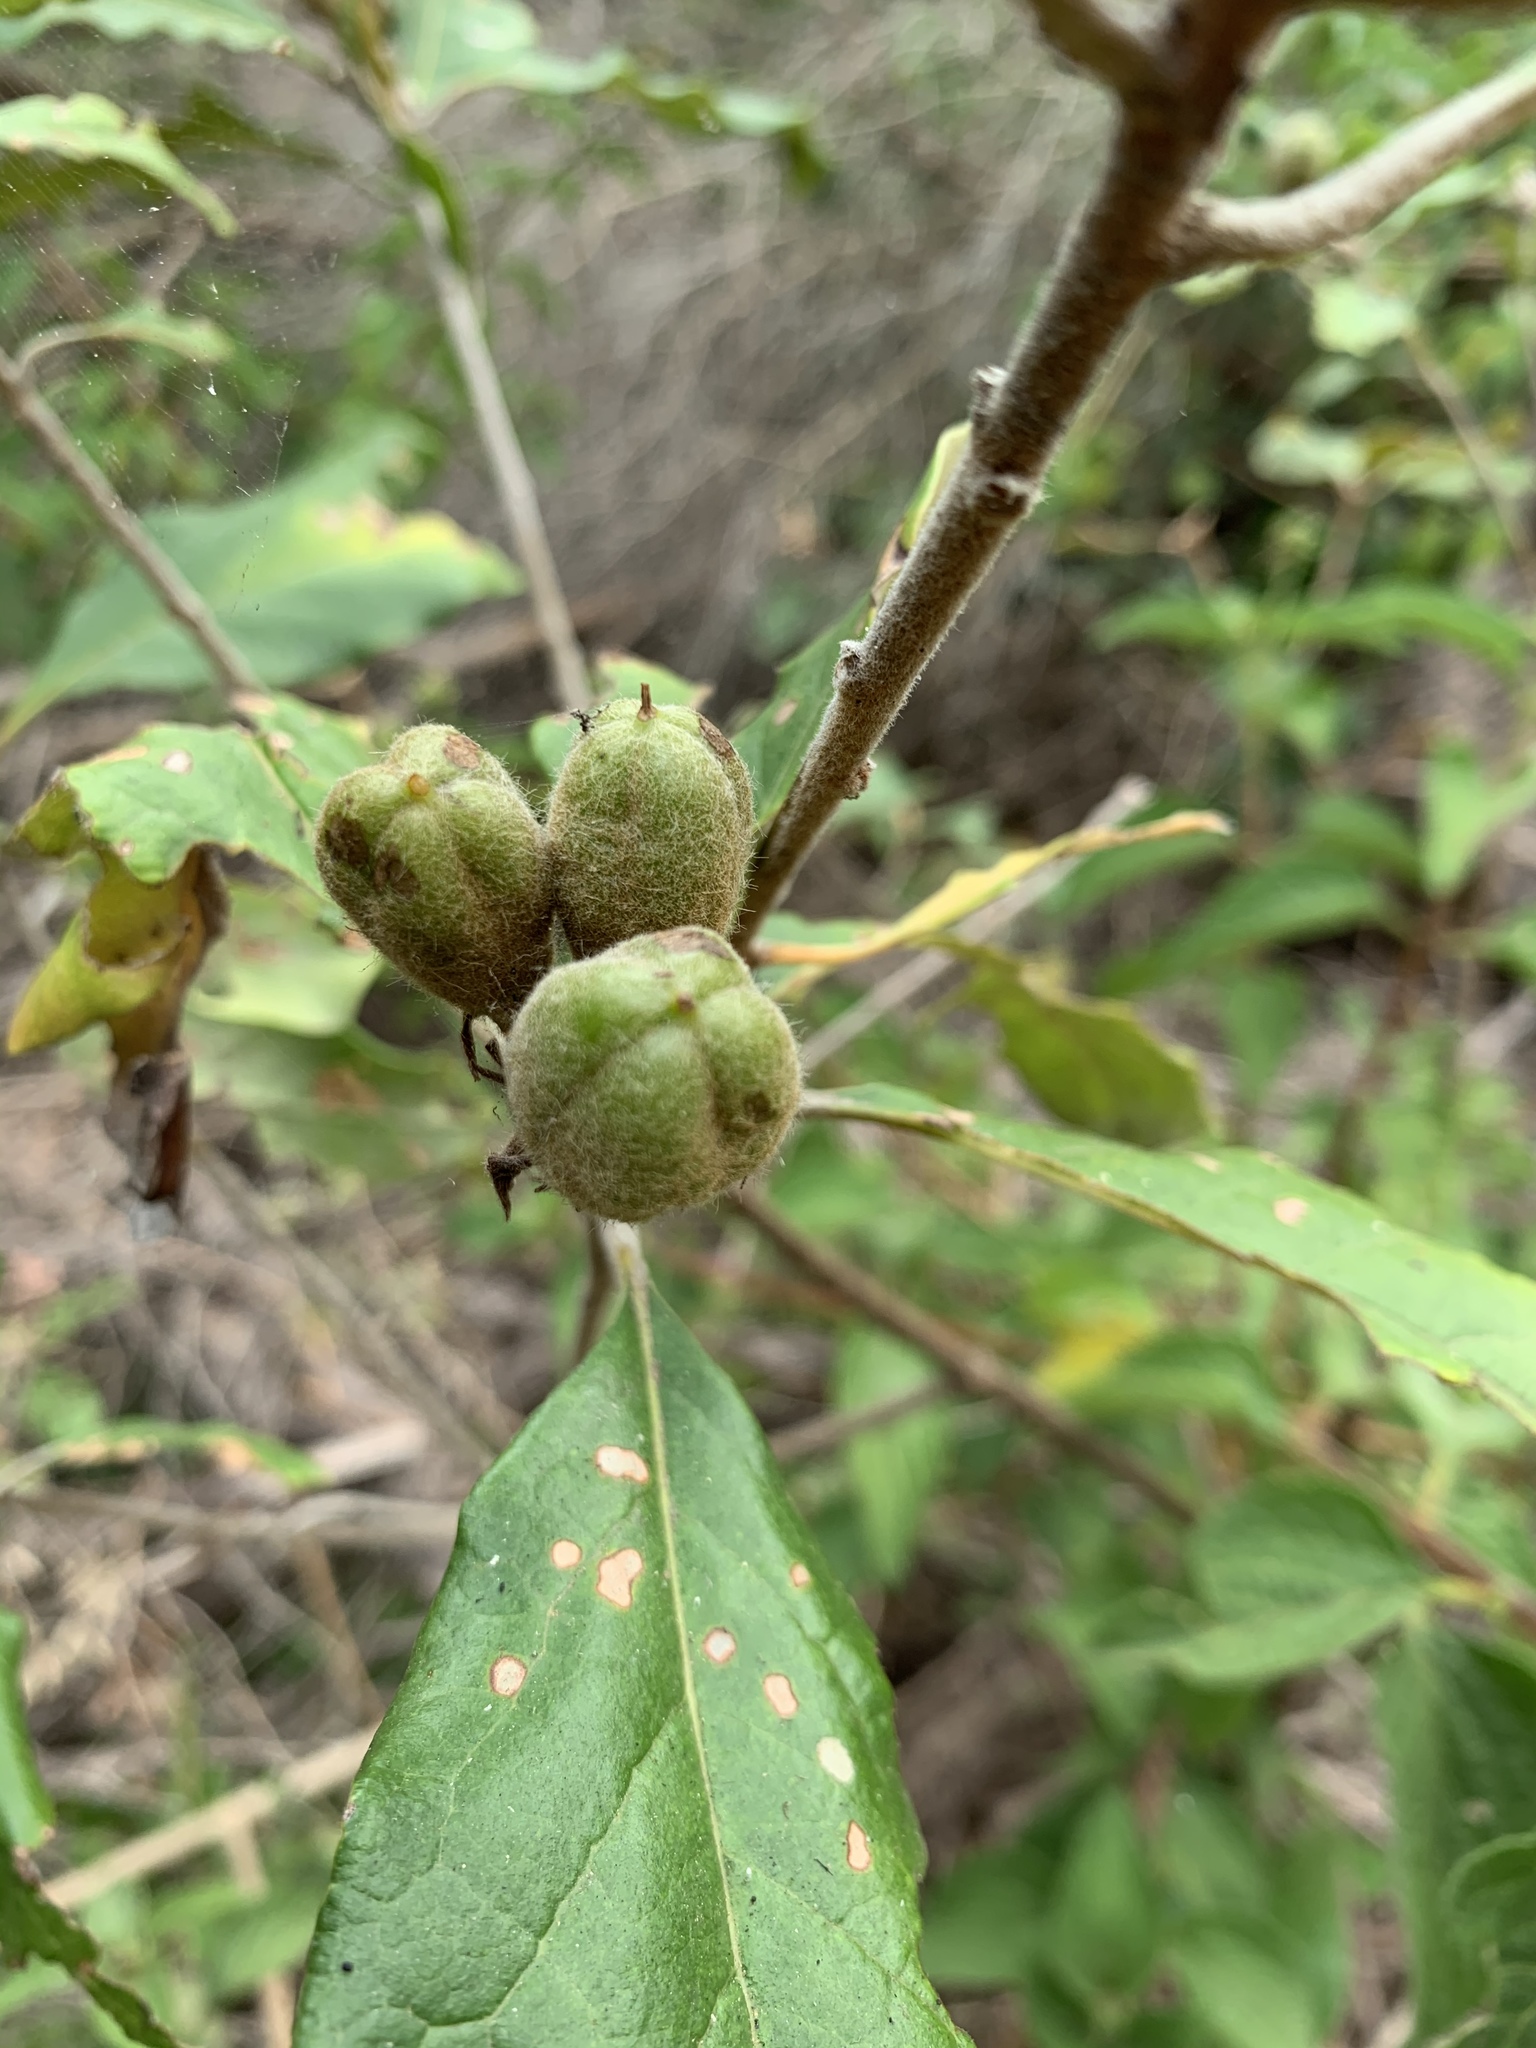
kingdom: Plantae
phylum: Tracheophyta
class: Magnoliopsida
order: Apiales
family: Pittosporaceae
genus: Pittosporum
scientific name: Pittosporum revolutum
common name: Brisbane-laurel
